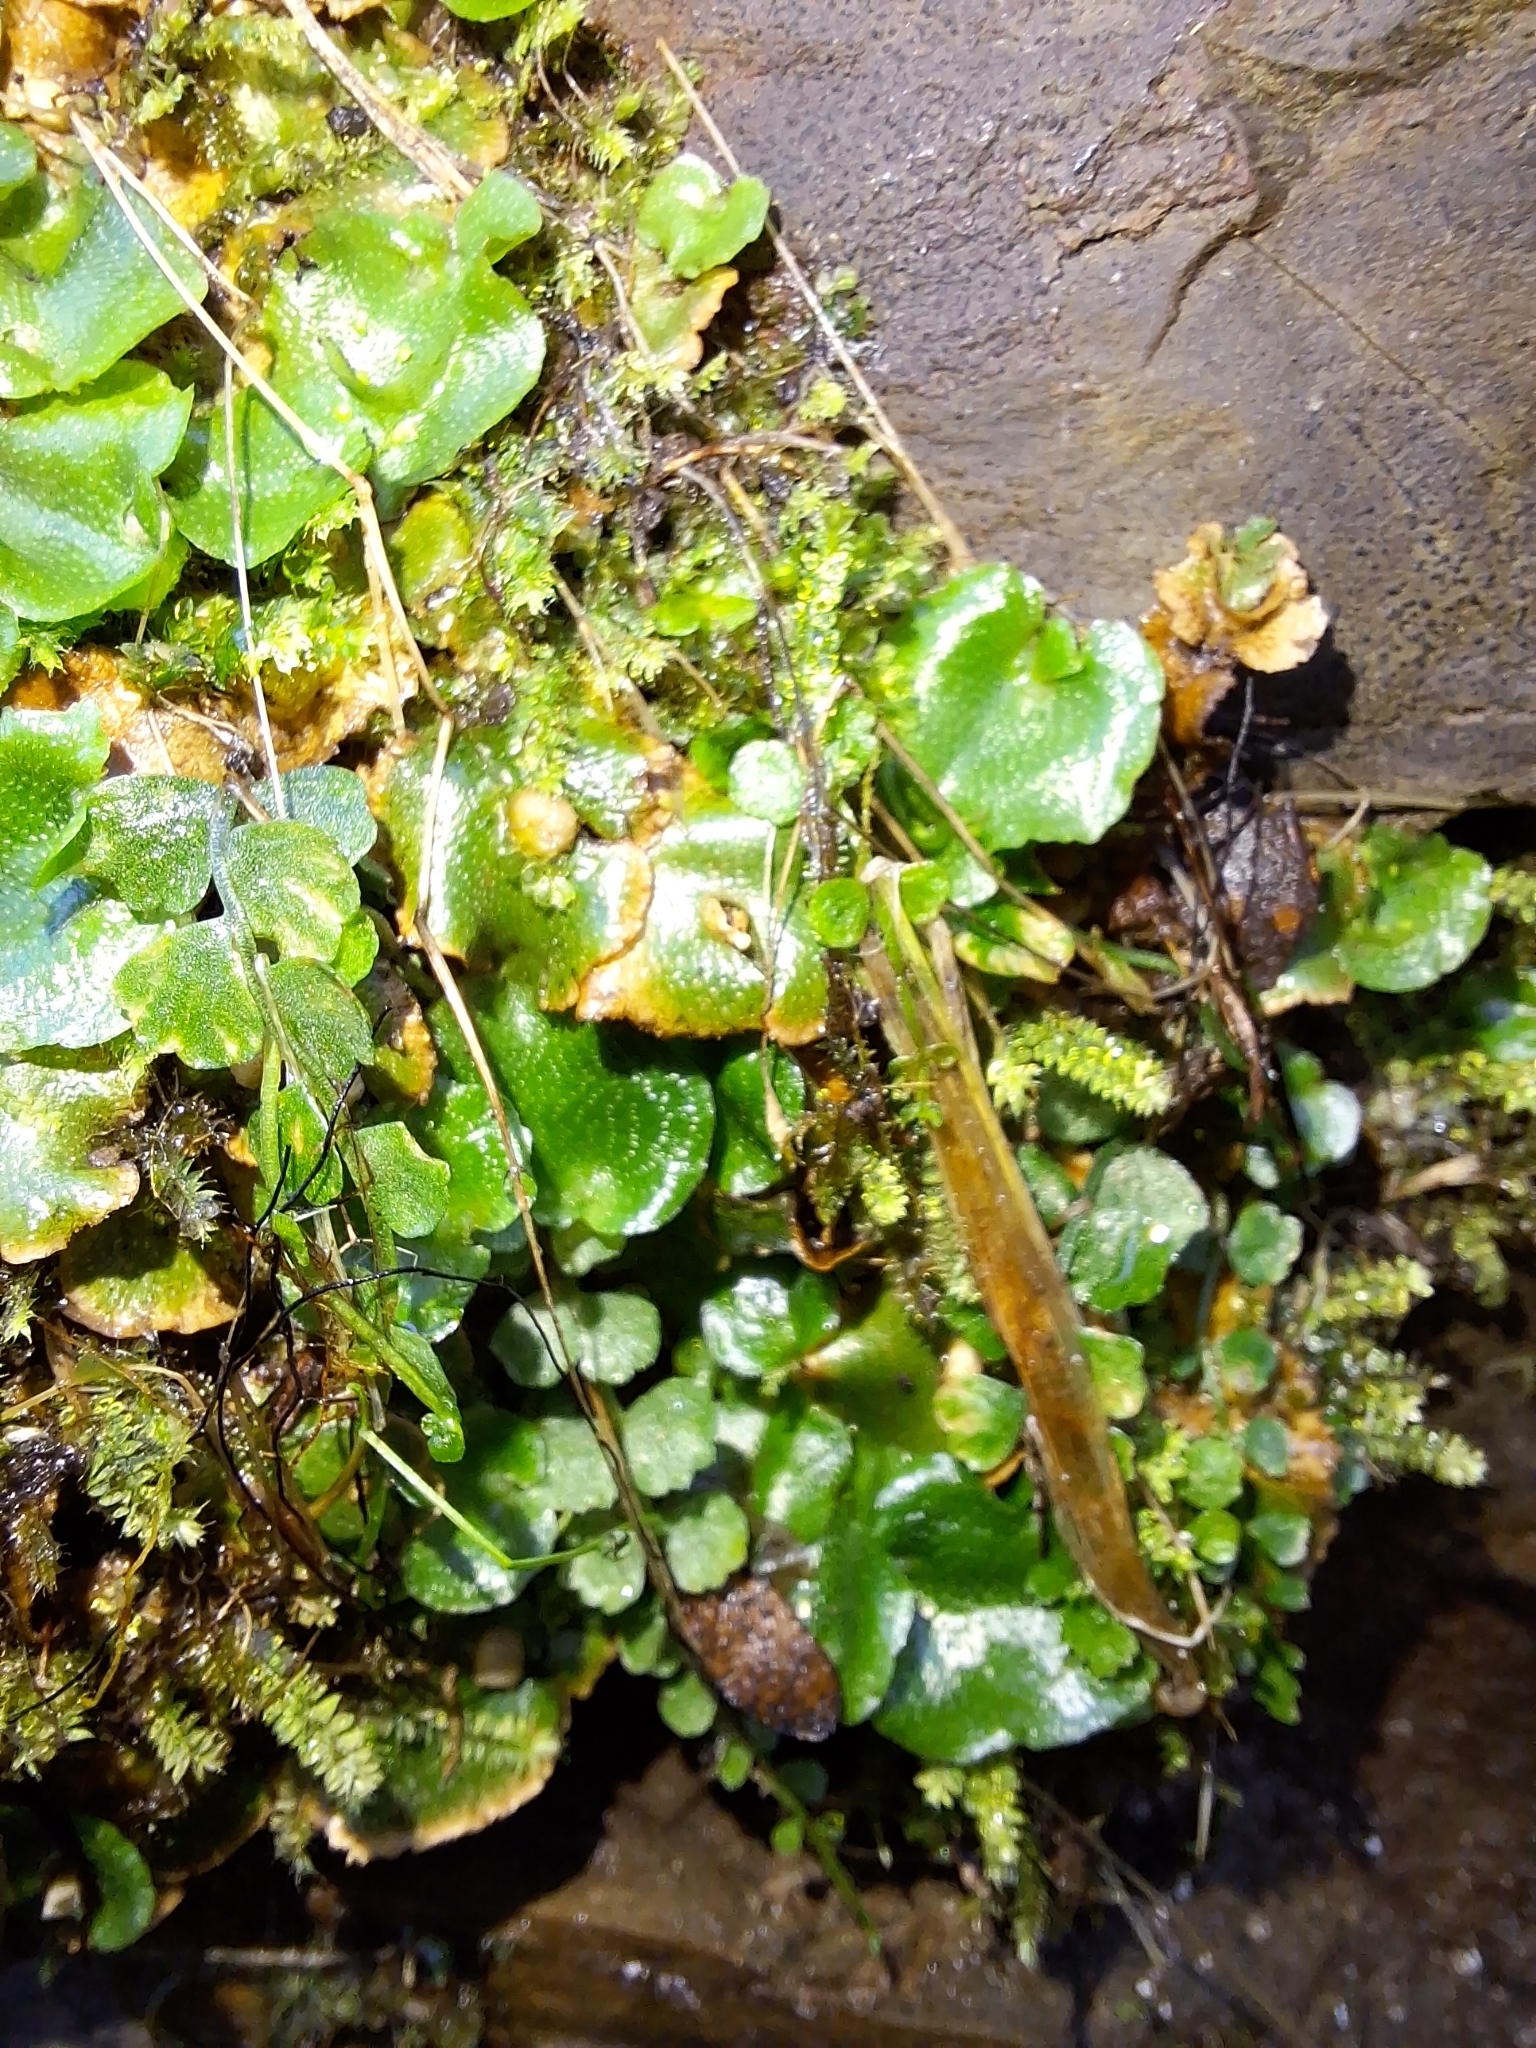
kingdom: Plantae
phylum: Marchantiophyta
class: Marchantiopsida
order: Lunulariales
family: Lunulariaceae
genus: Lunularia
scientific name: Lunularia cruciata
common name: Crescent-cup liverwort
